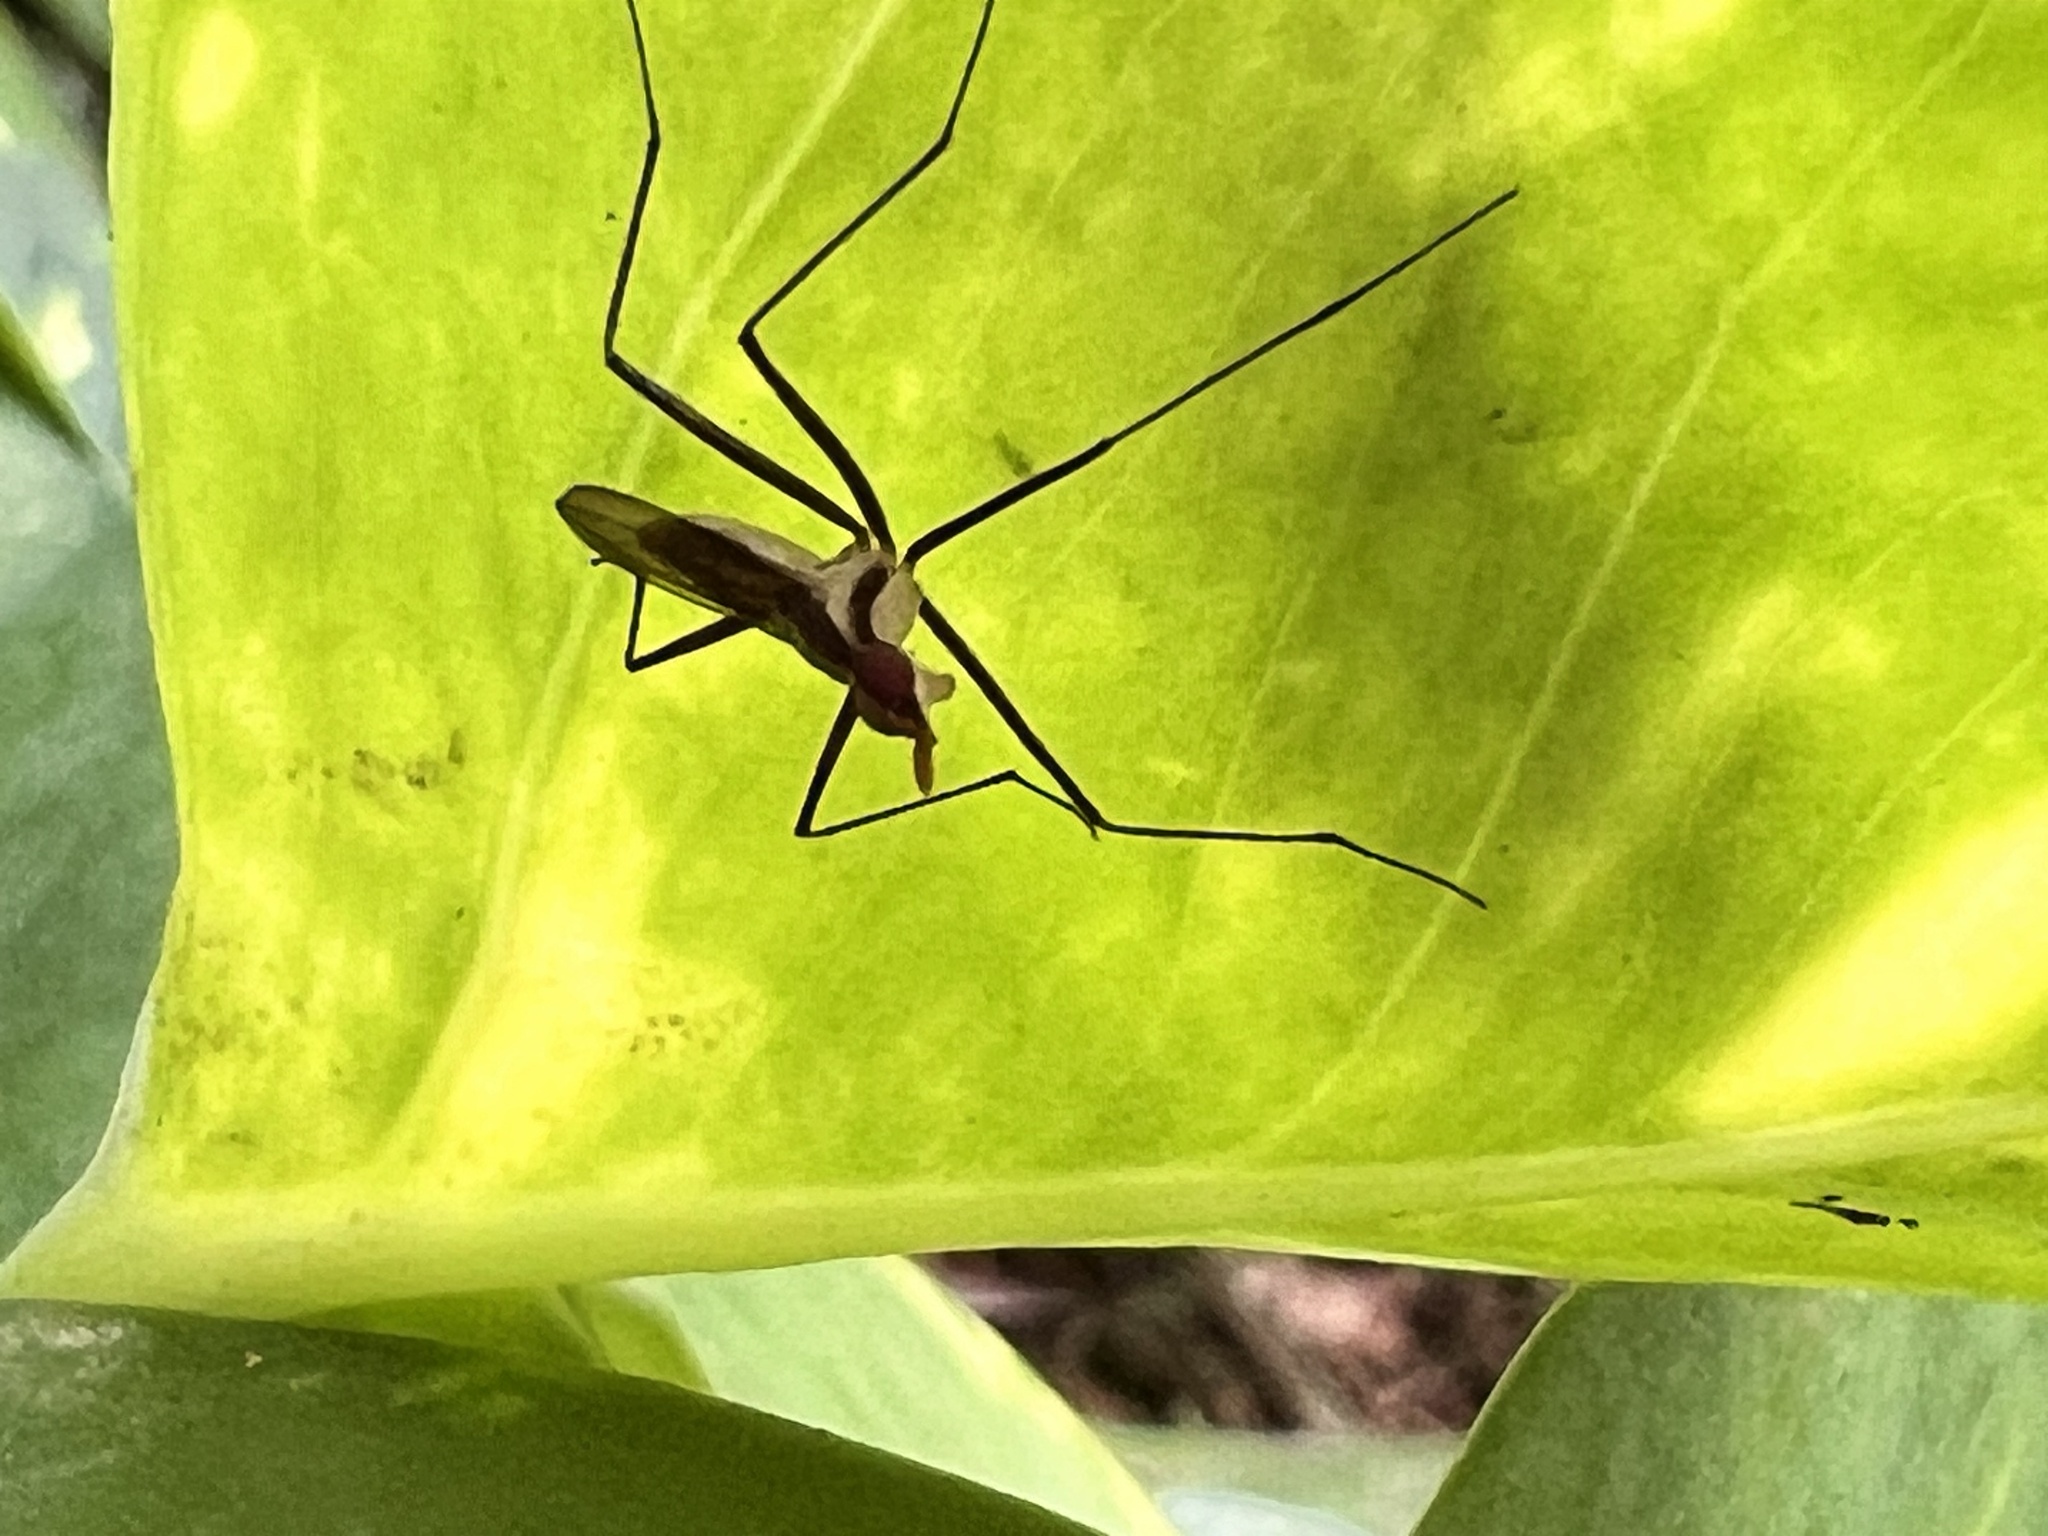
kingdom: Animalia
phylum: Arthropoda
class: Insecta
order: Diptera
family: Neriidae
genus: Telostylinus
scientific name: Telostylinus lineolatus
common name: Banana stalk fly
